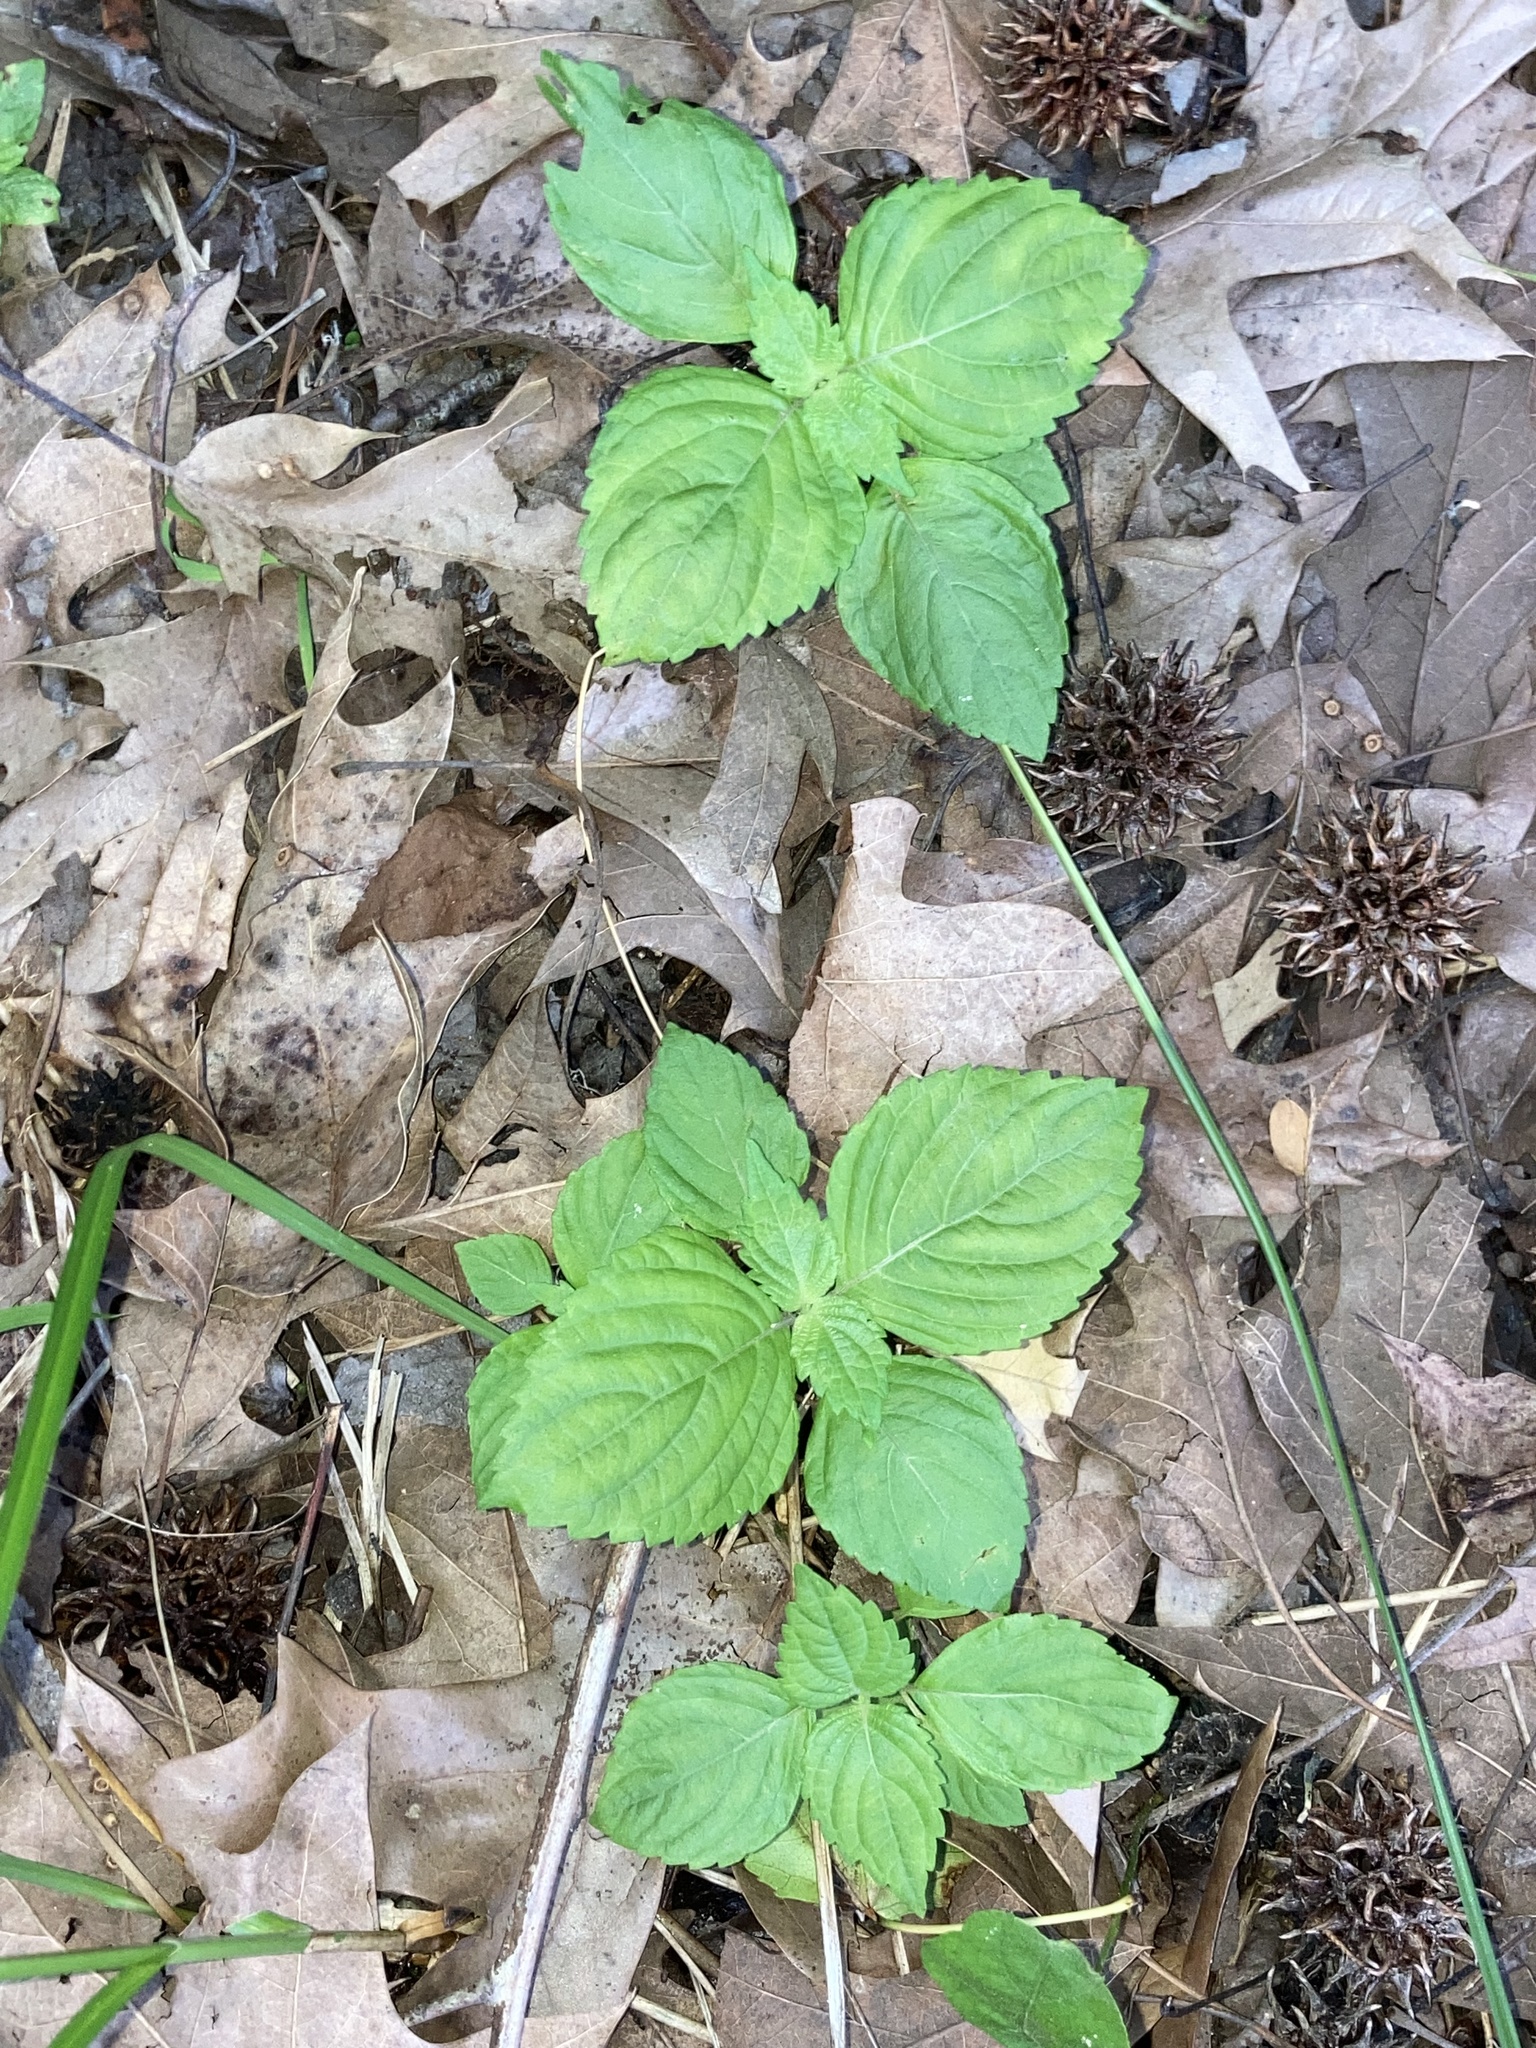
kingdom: Plantae
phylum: Tracheophyta
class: Magnoliopsida
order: Lamiales
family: Lamiaceae
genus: Perilla
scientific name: Perilla frutescens
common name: Perilla
